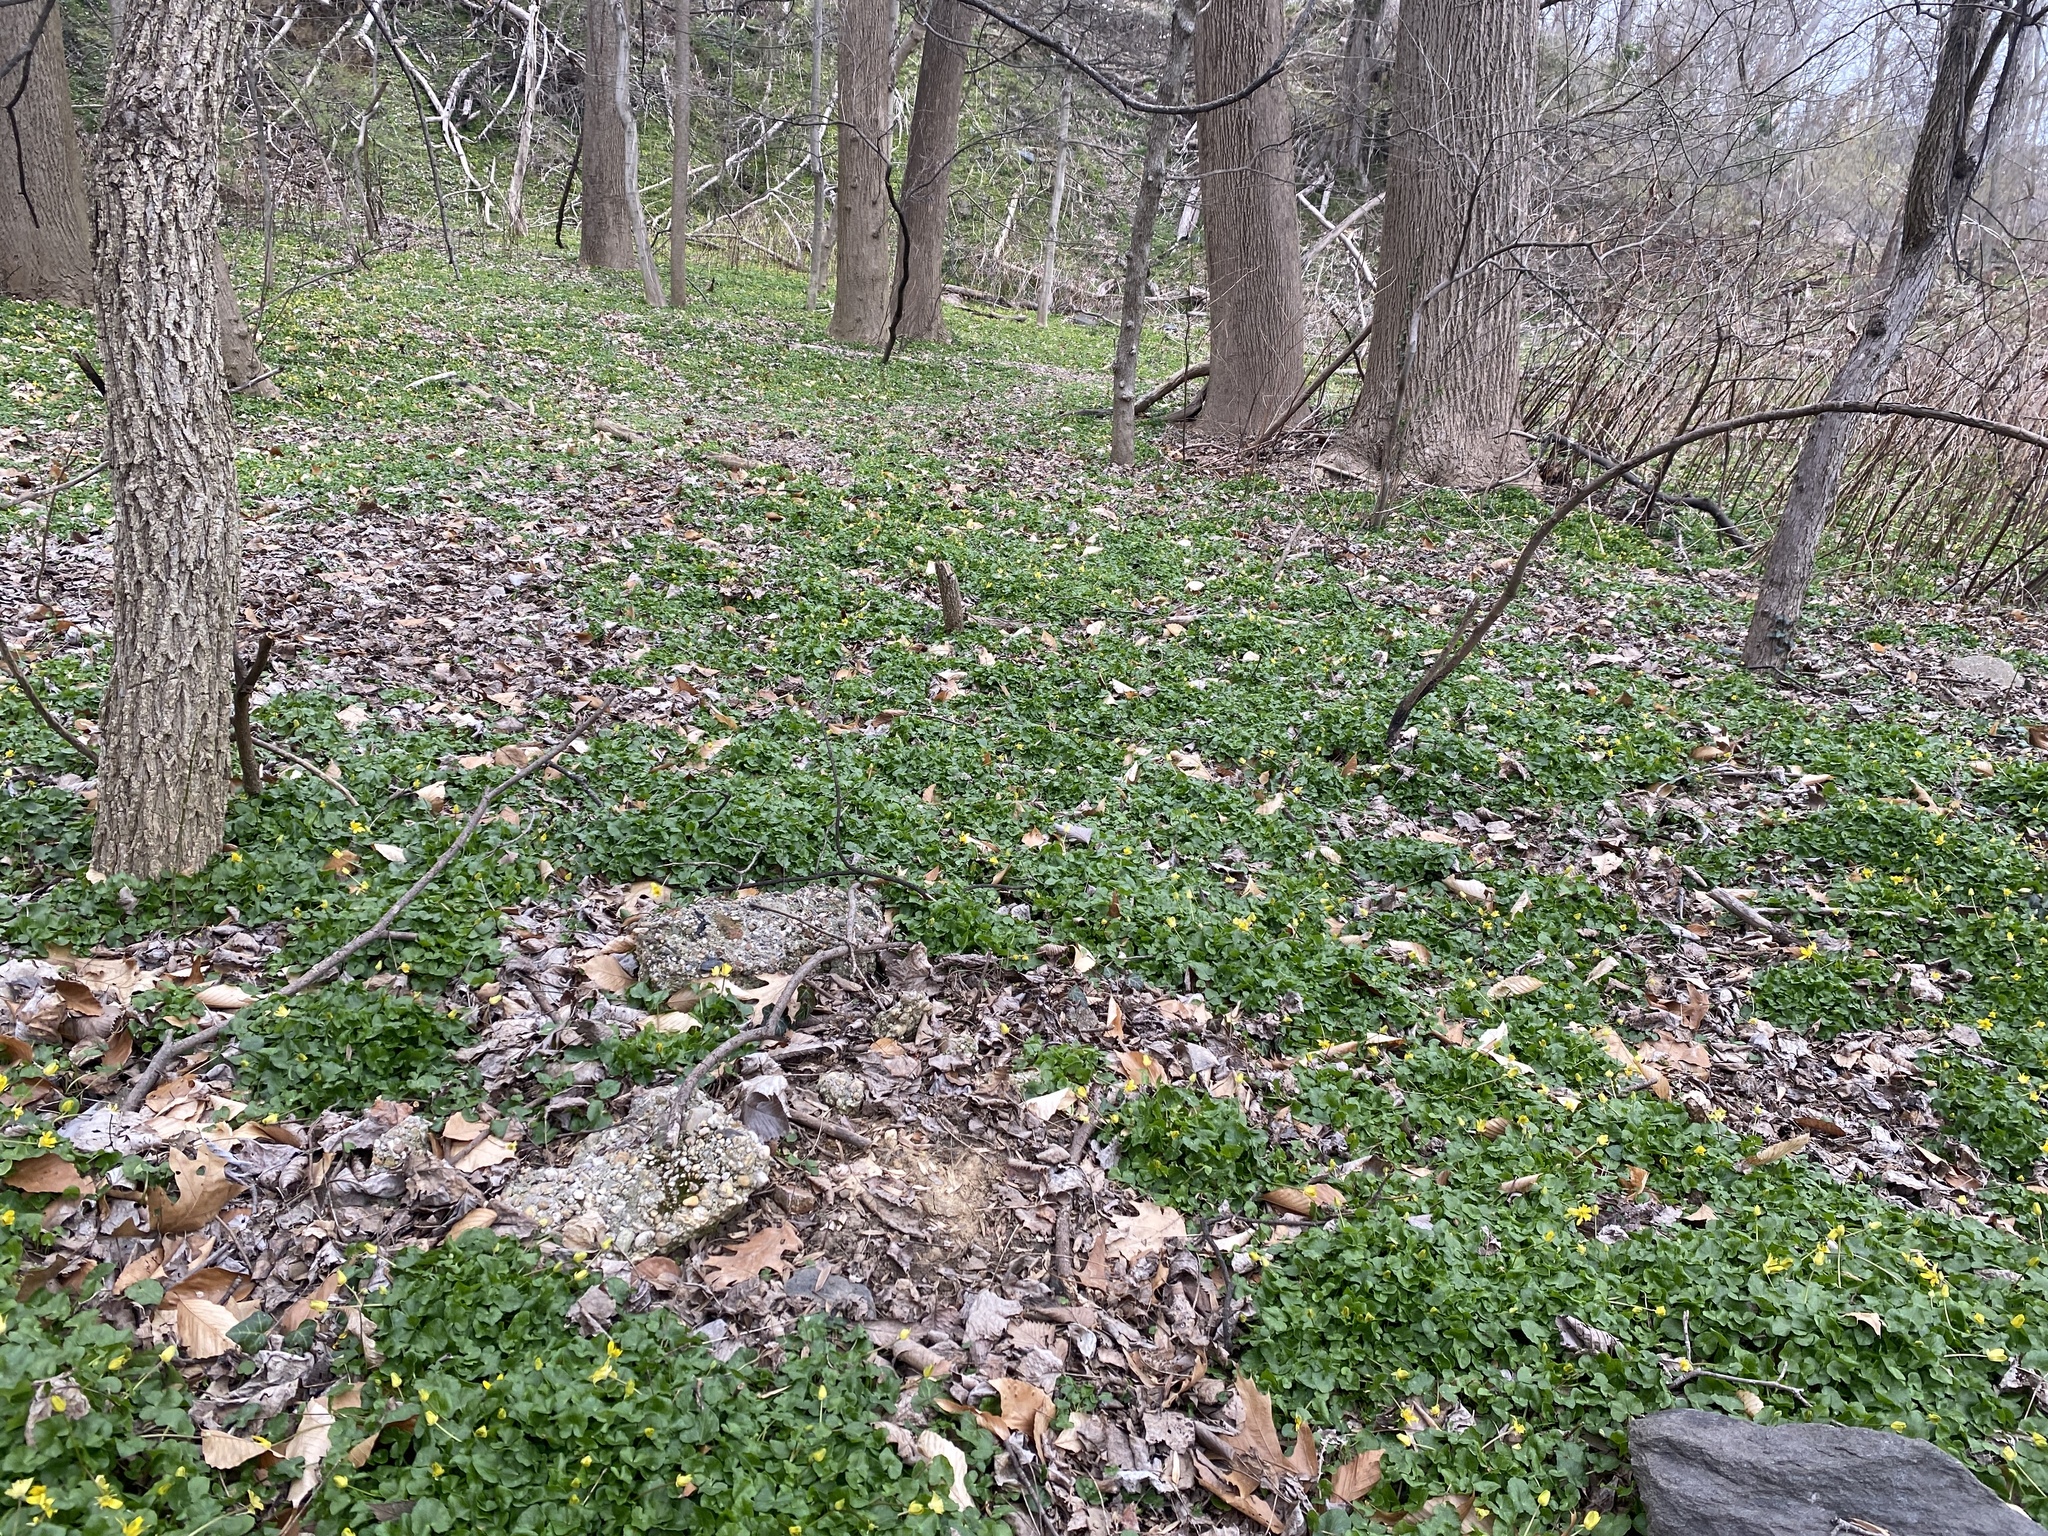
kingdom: Plantae
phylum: Tracheophyta
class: Magnoliopsida
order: Ranunculales
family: Ranunculaceae
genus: Ficaria
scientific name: Ficaria verna
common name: Lesser celandine
